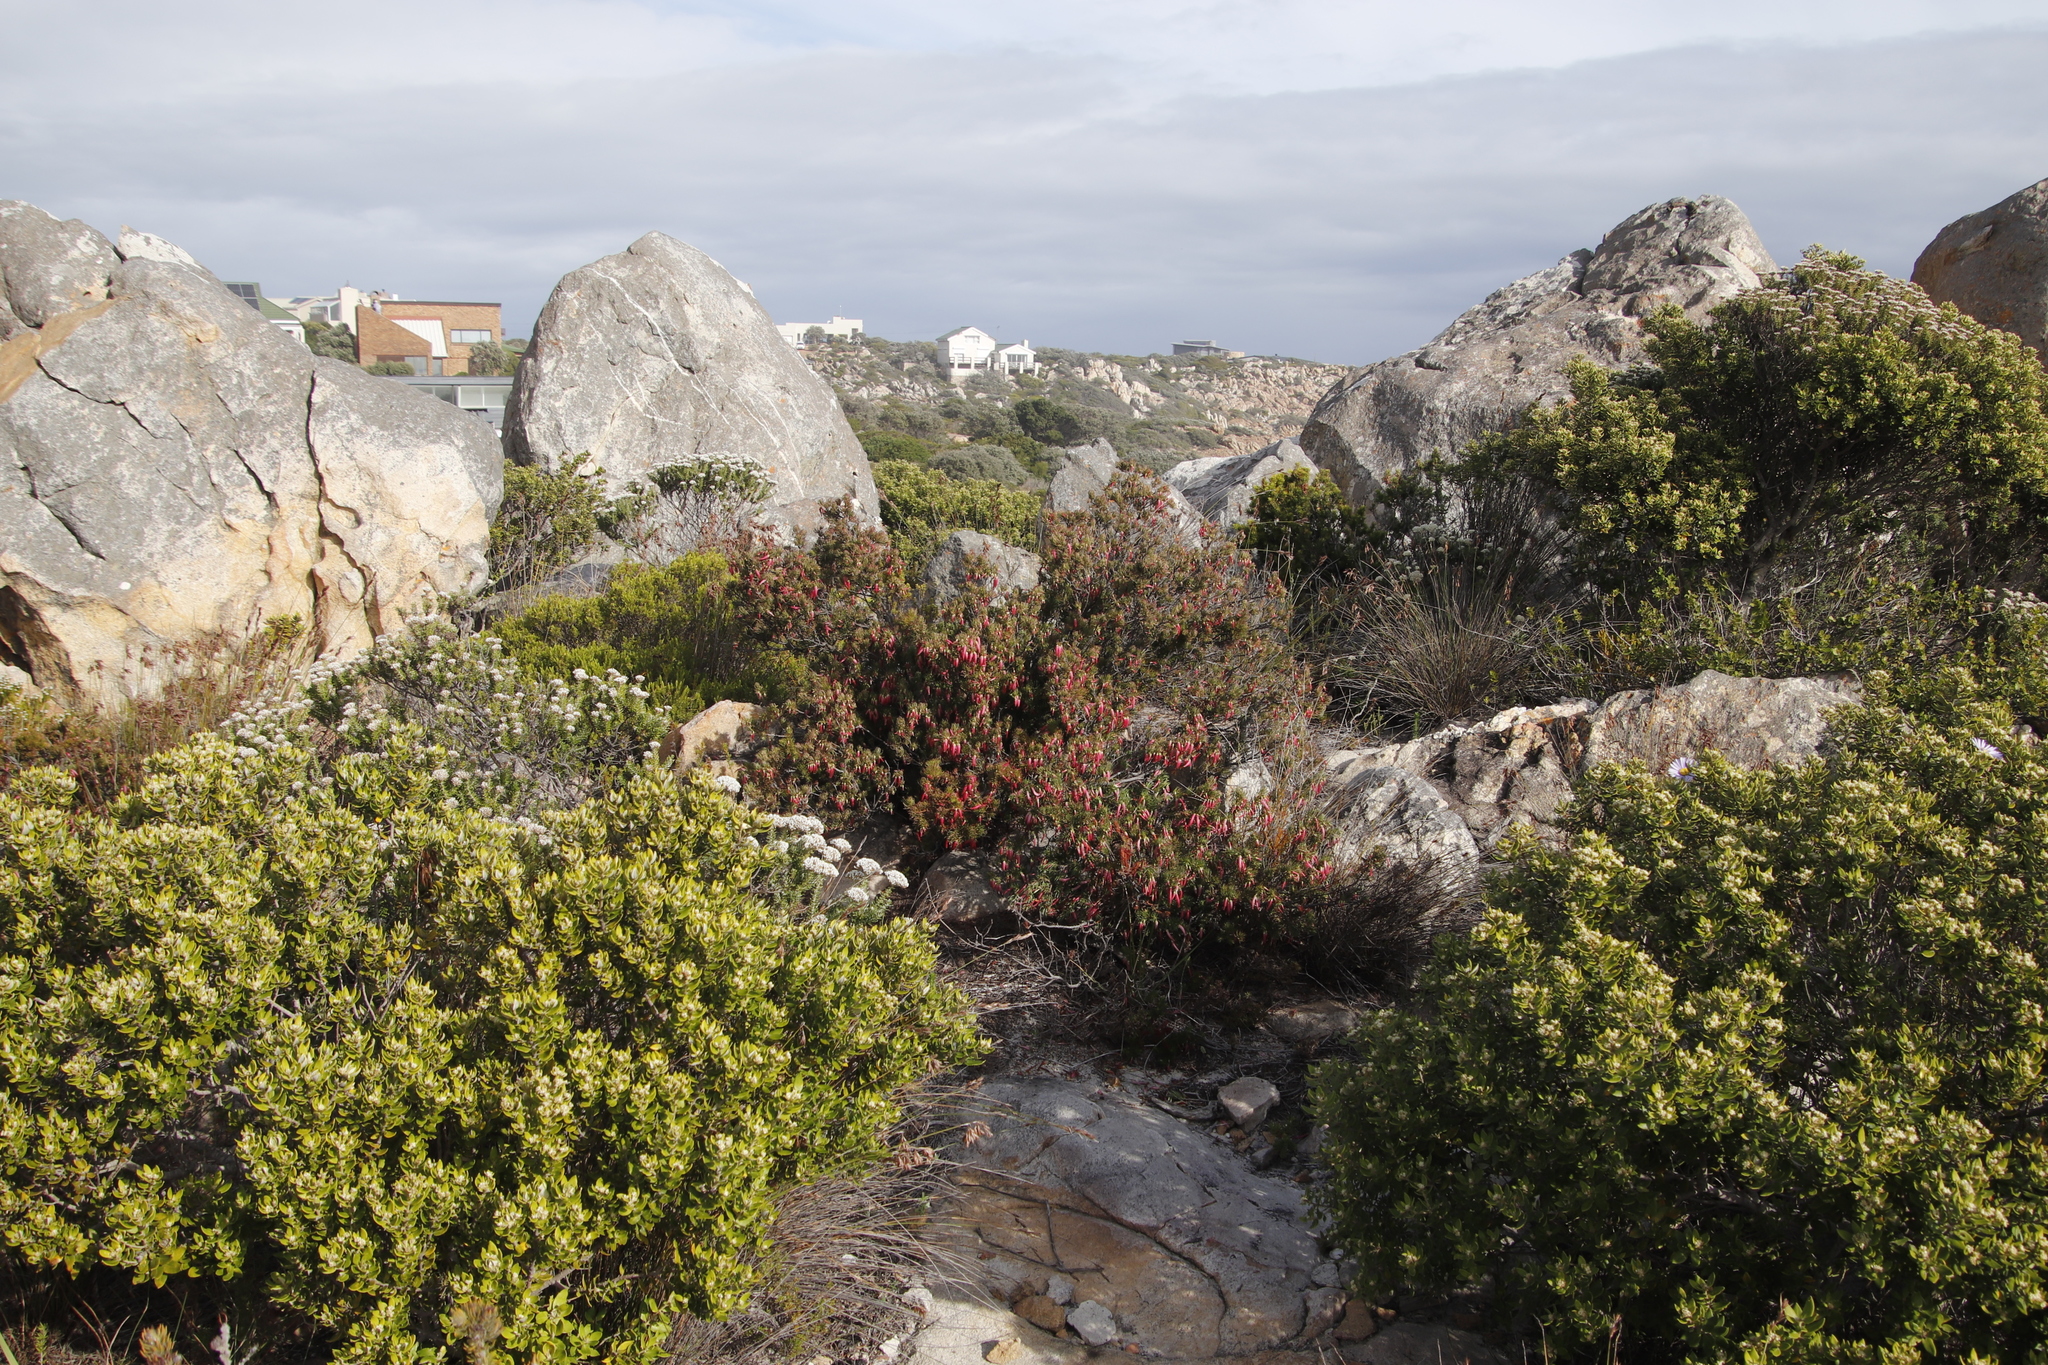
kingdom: Plantae
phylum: Tracheophyta
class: Magnoliopsida
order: Ericales
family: Ericaceae
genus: Erica
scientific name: Erica plukenetii
